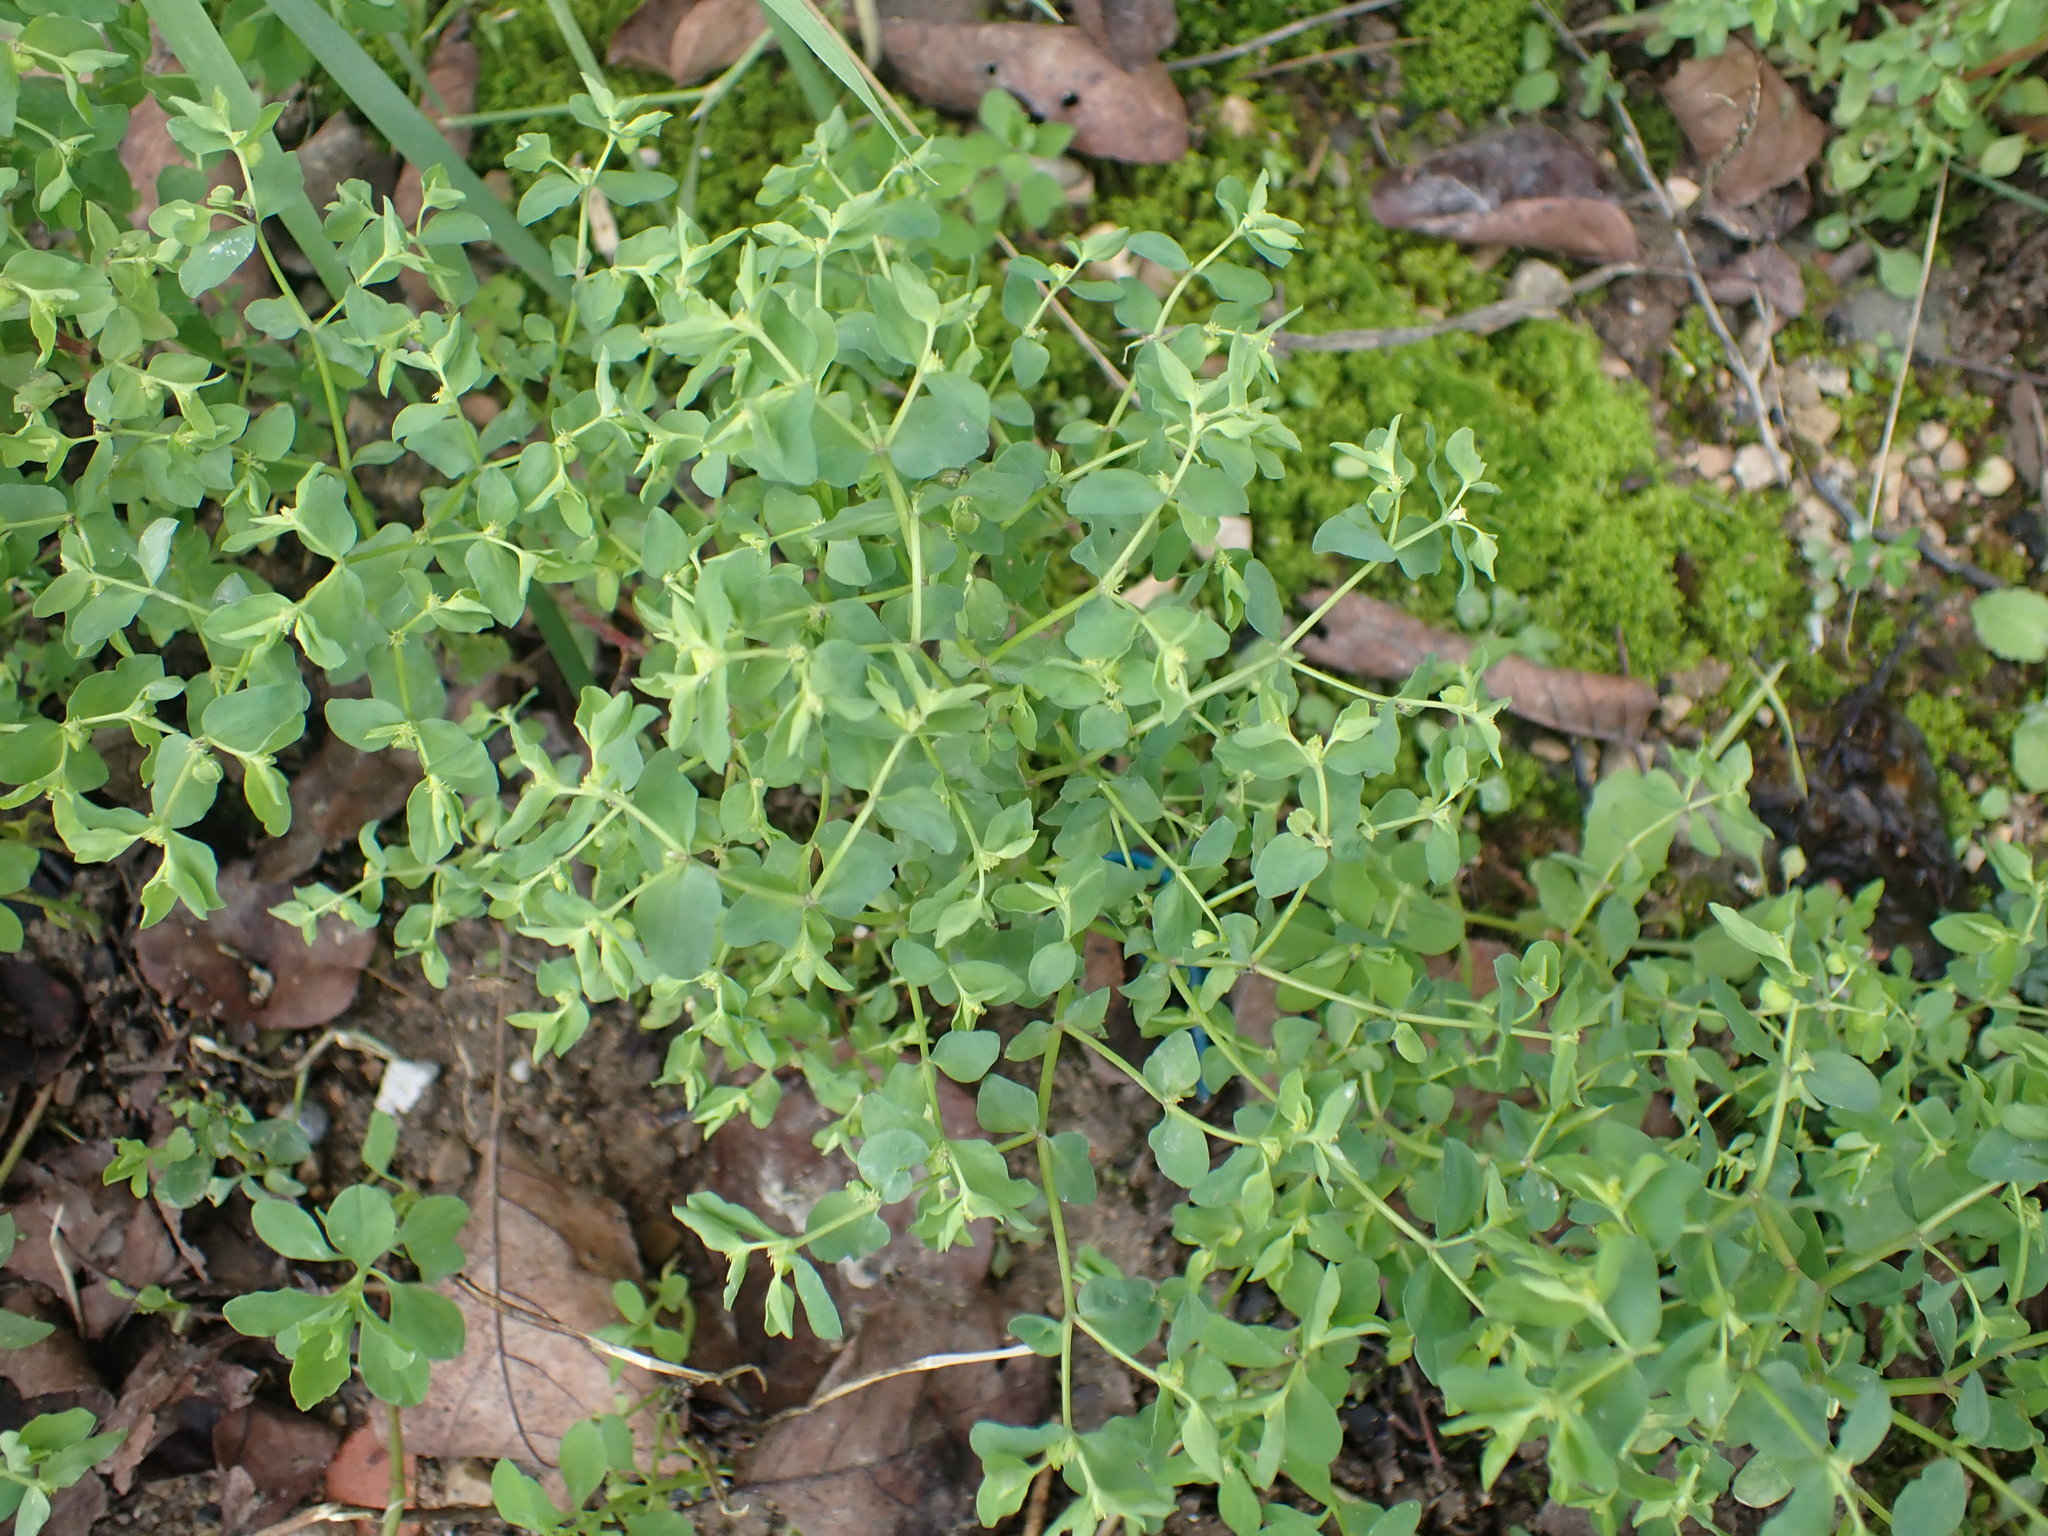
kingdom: Plantae
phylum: Tracheophyta
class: Magnoliopsida
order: Malpighiales
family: Euphorbiaceae
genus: Euphorbia
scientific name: Euphorbia peplus
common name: Petty spurge
